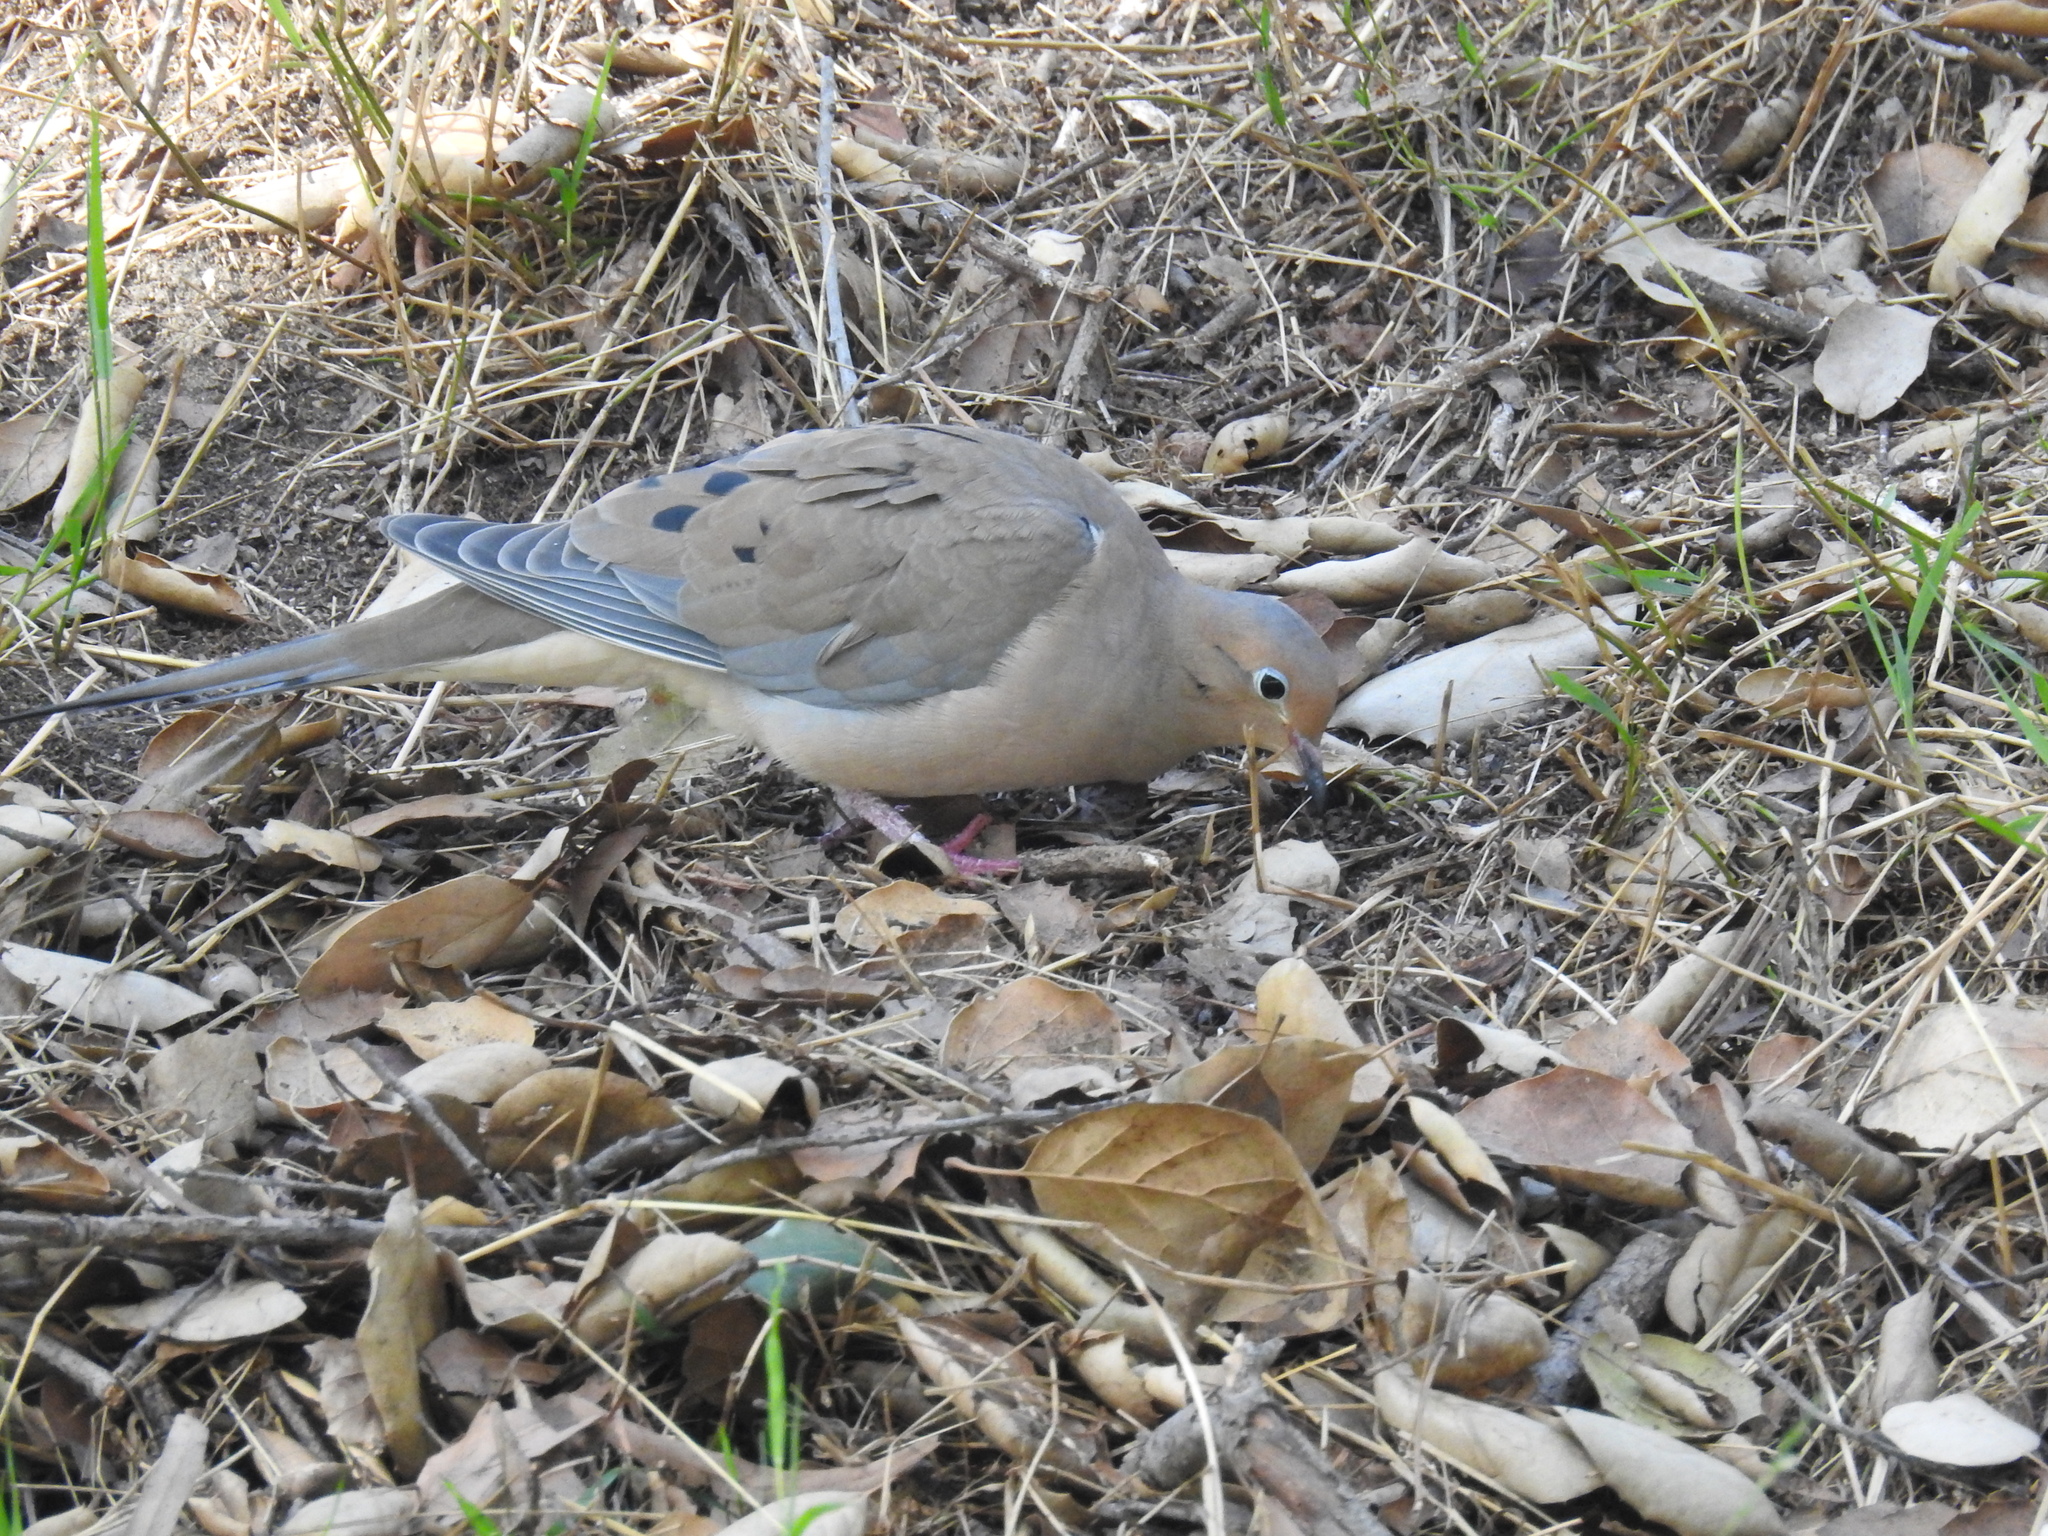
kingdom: Animalia
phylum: Chordata
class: Aves
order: Columbiformes
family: Columbidae
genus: Zenaida
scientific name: Zenaida macroura
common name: Mourning dove
